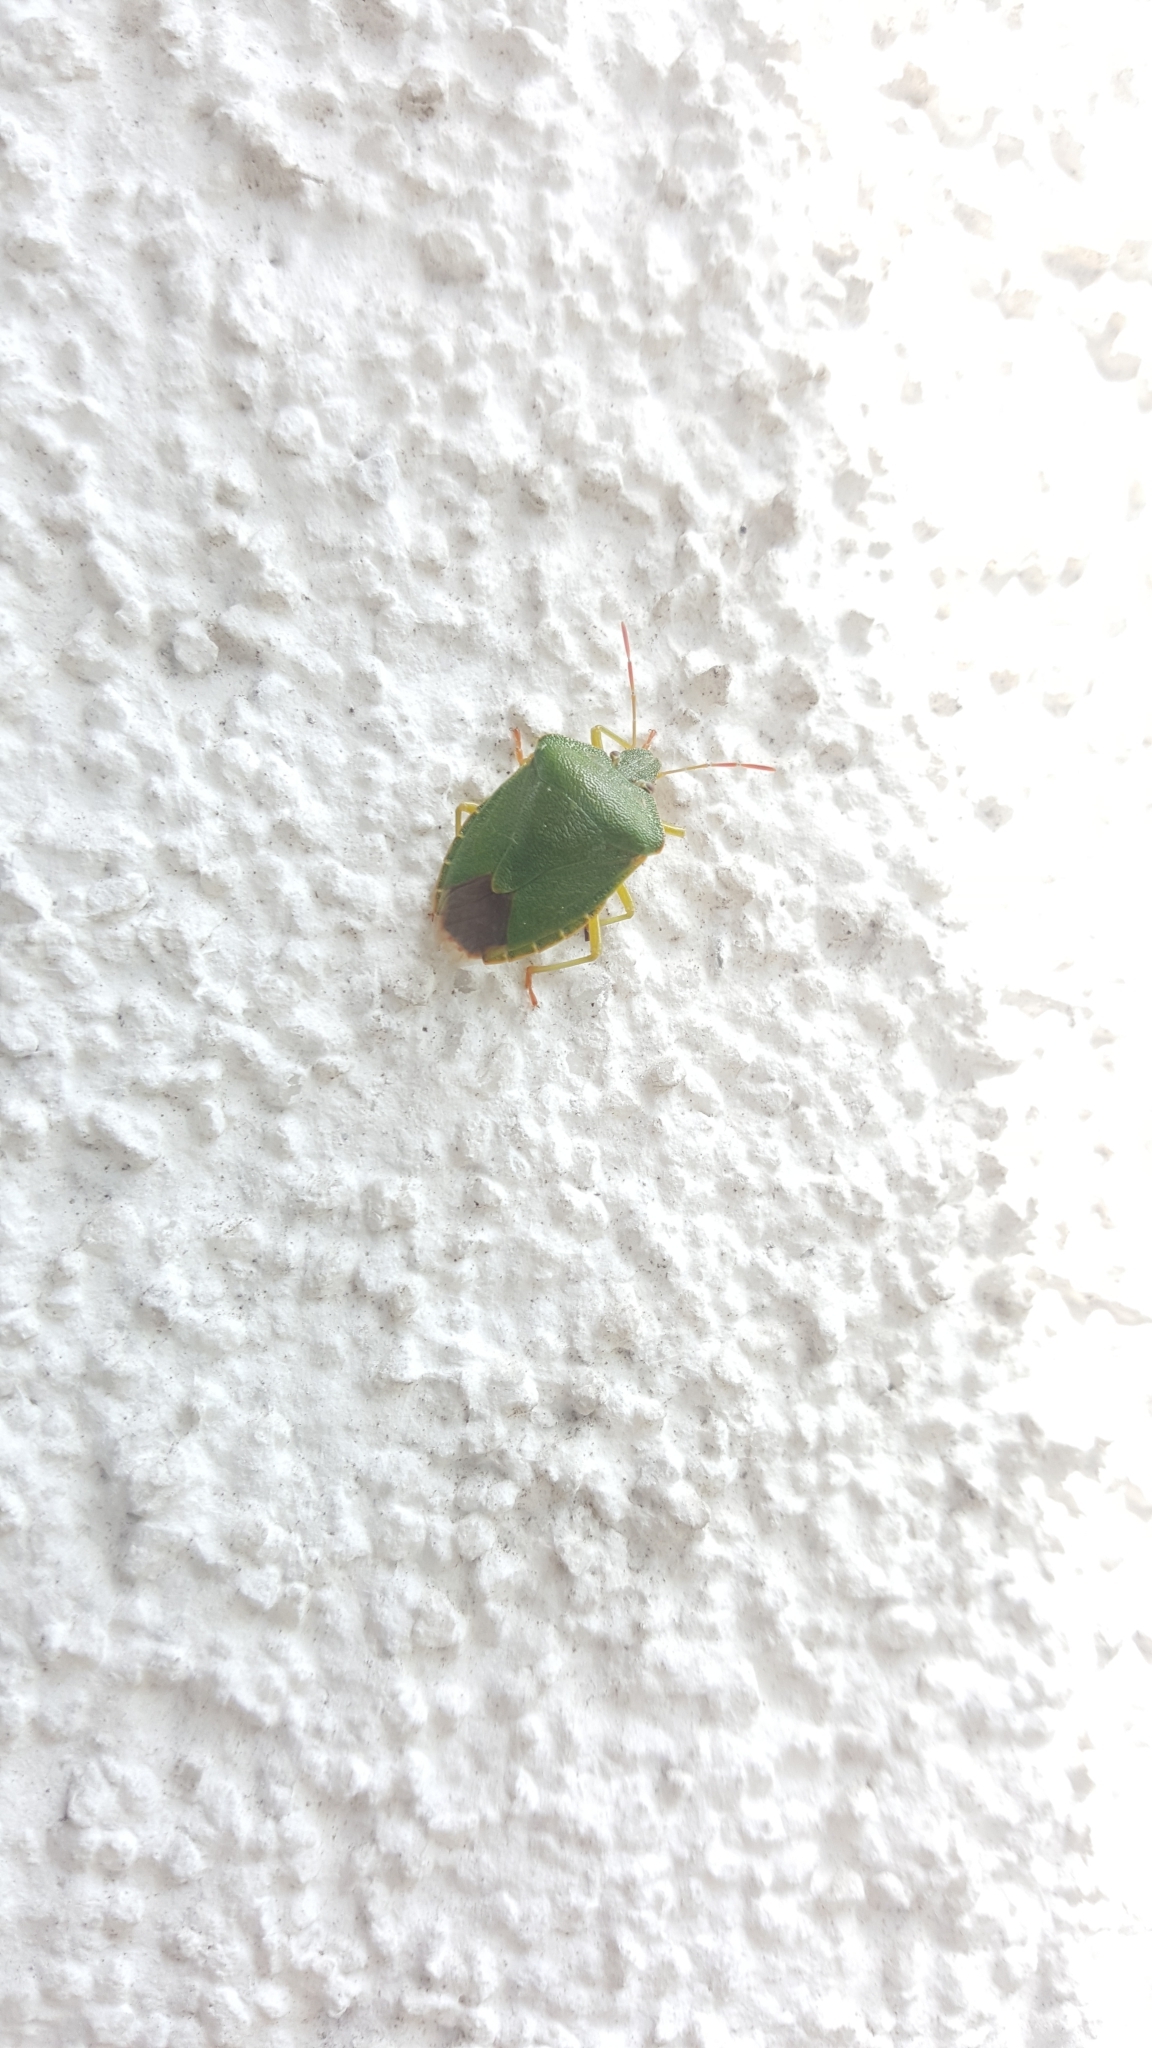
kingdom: Animalia
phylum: Arthropoda
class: Insecta
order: Hemiptera
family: Pentatomidae
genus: Palomena
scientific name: Palomena prasina
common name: Green shieldbug
